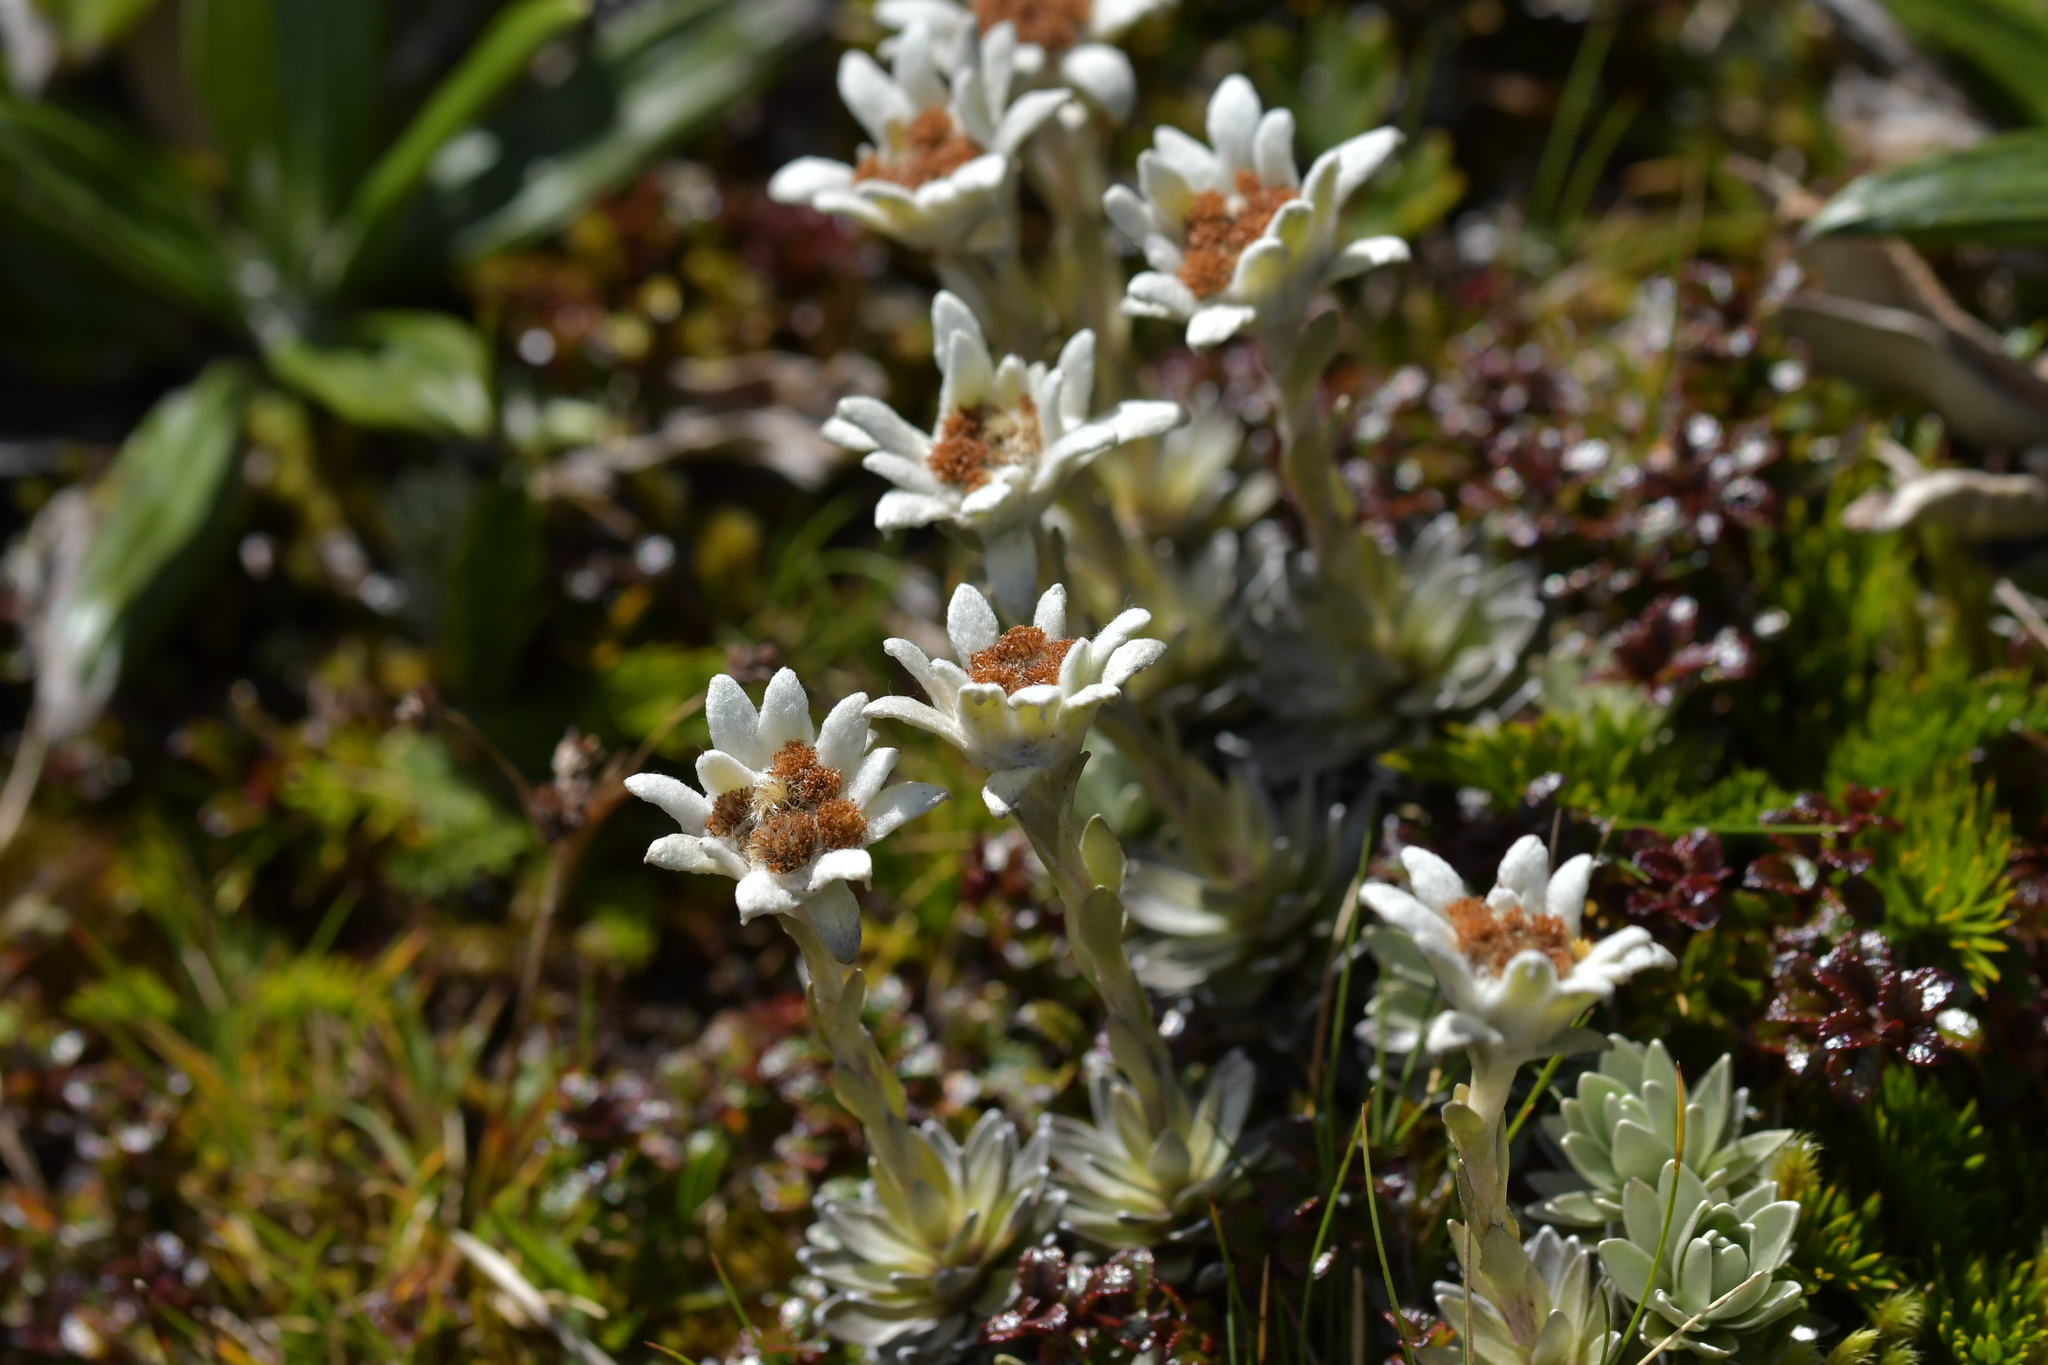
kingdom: Plantae
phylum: Tracheophyta
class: Magnoliopsida
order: Asterales
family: Asteraceae
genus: Leucogenes
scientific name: Leucogenes leontopodium
